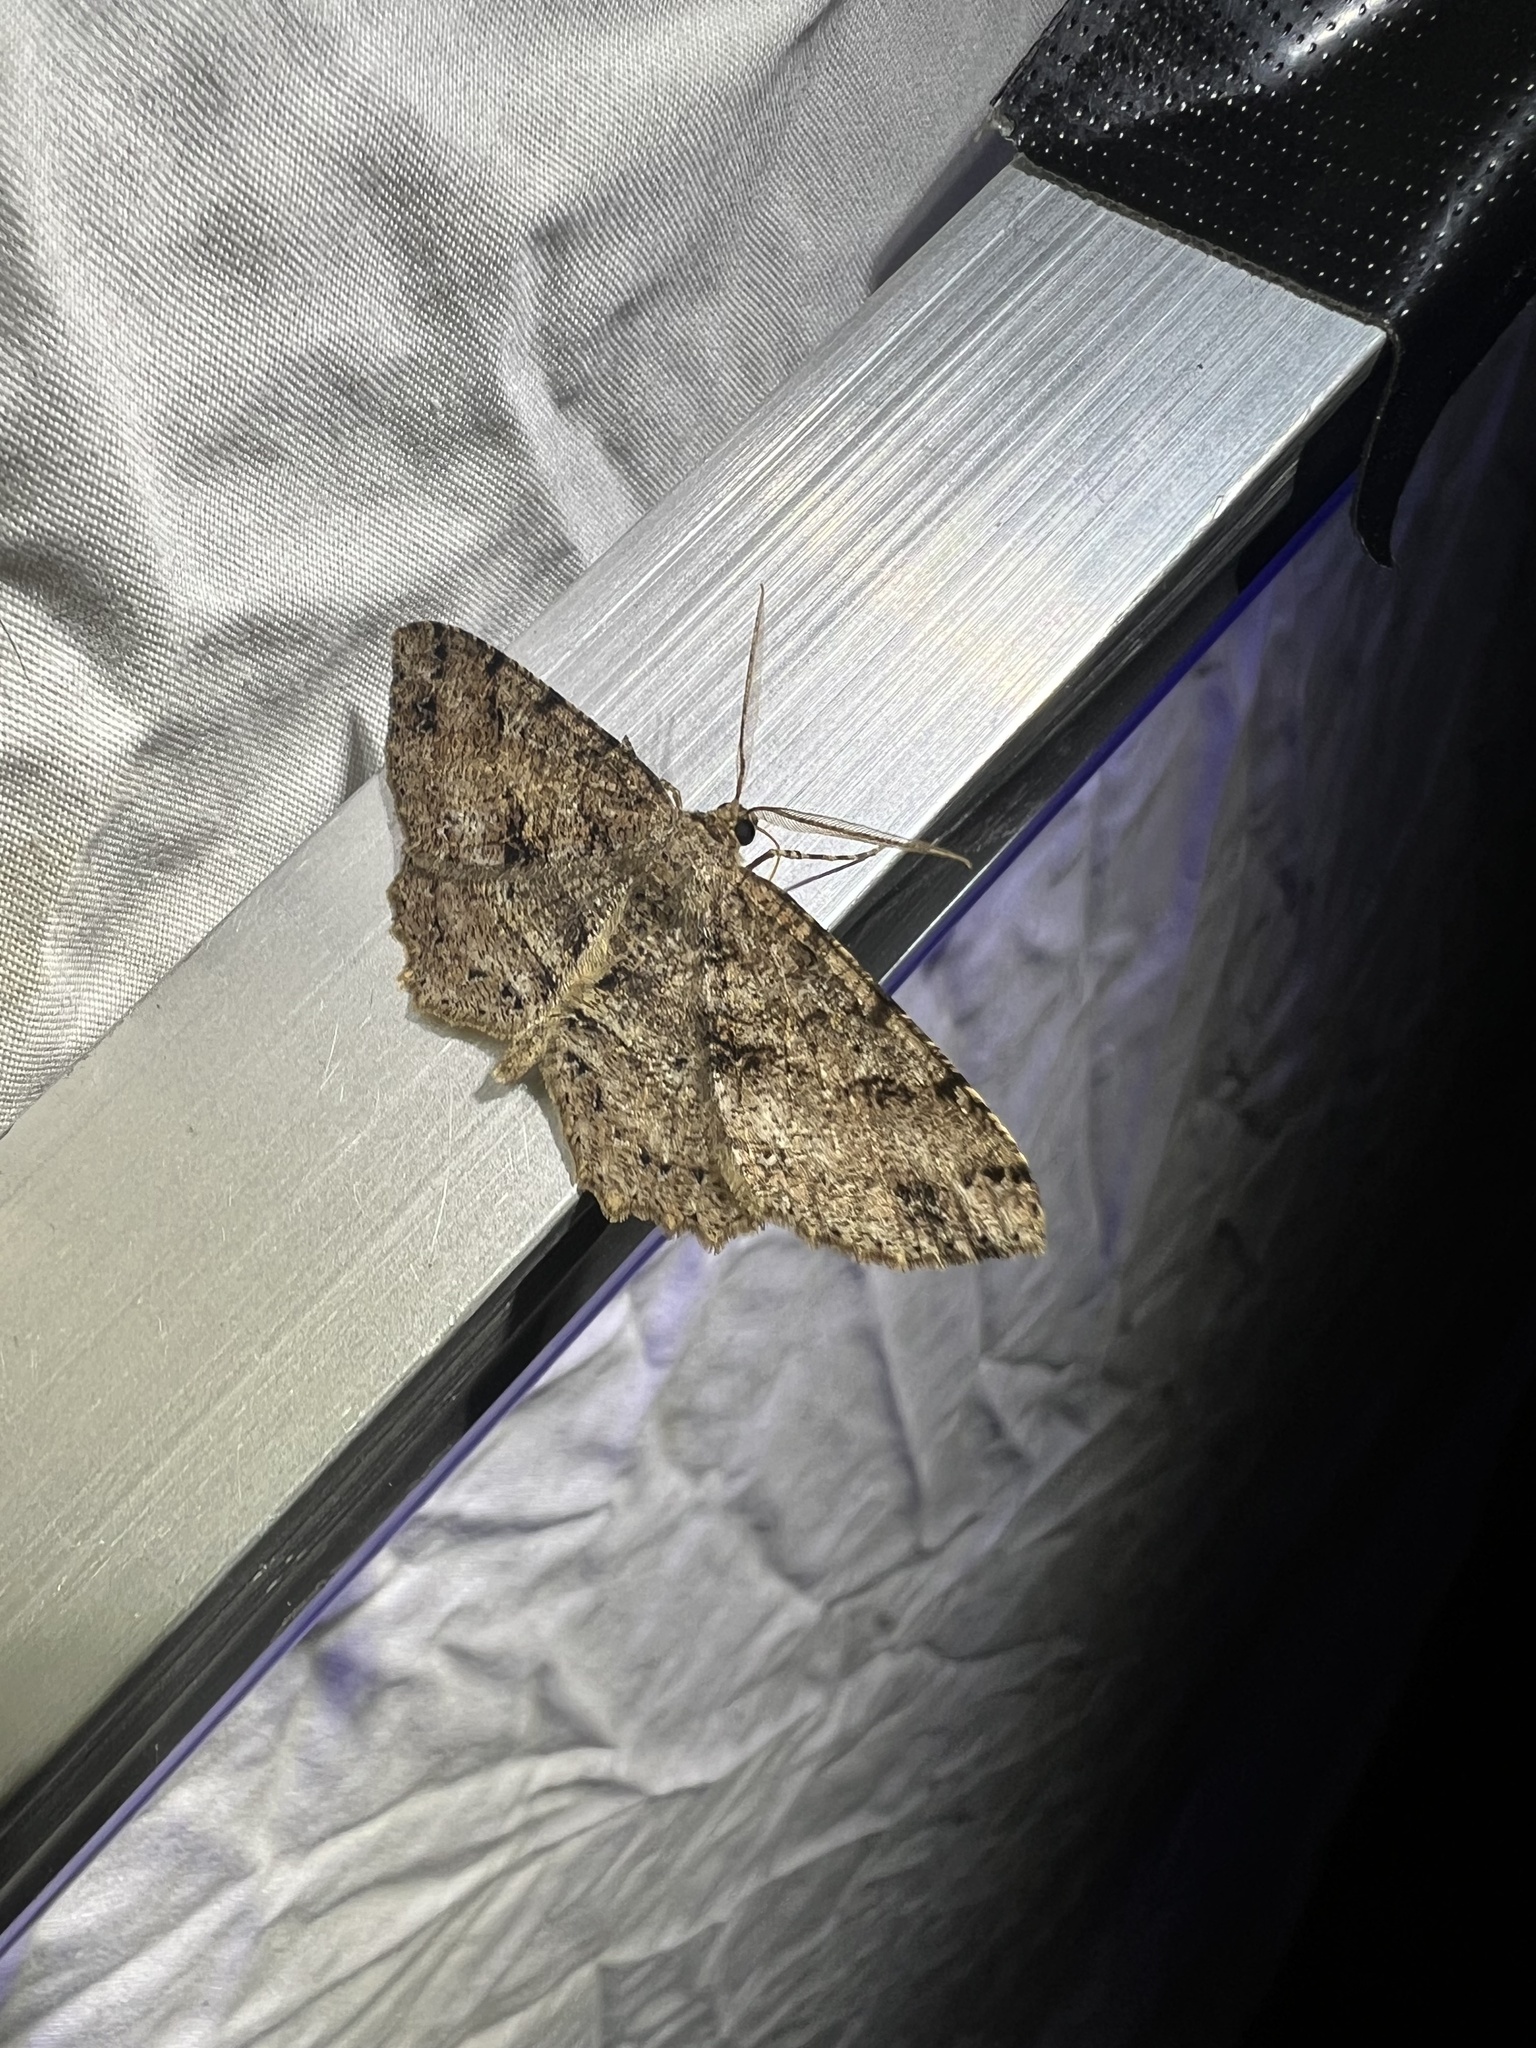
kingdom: Animalia
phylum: Arthropoda
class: Insecta
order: Lepidoptera
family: Geometridae
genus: Melanolophia
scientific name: Melanolophia canadaria
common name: Canadian melanolophia
